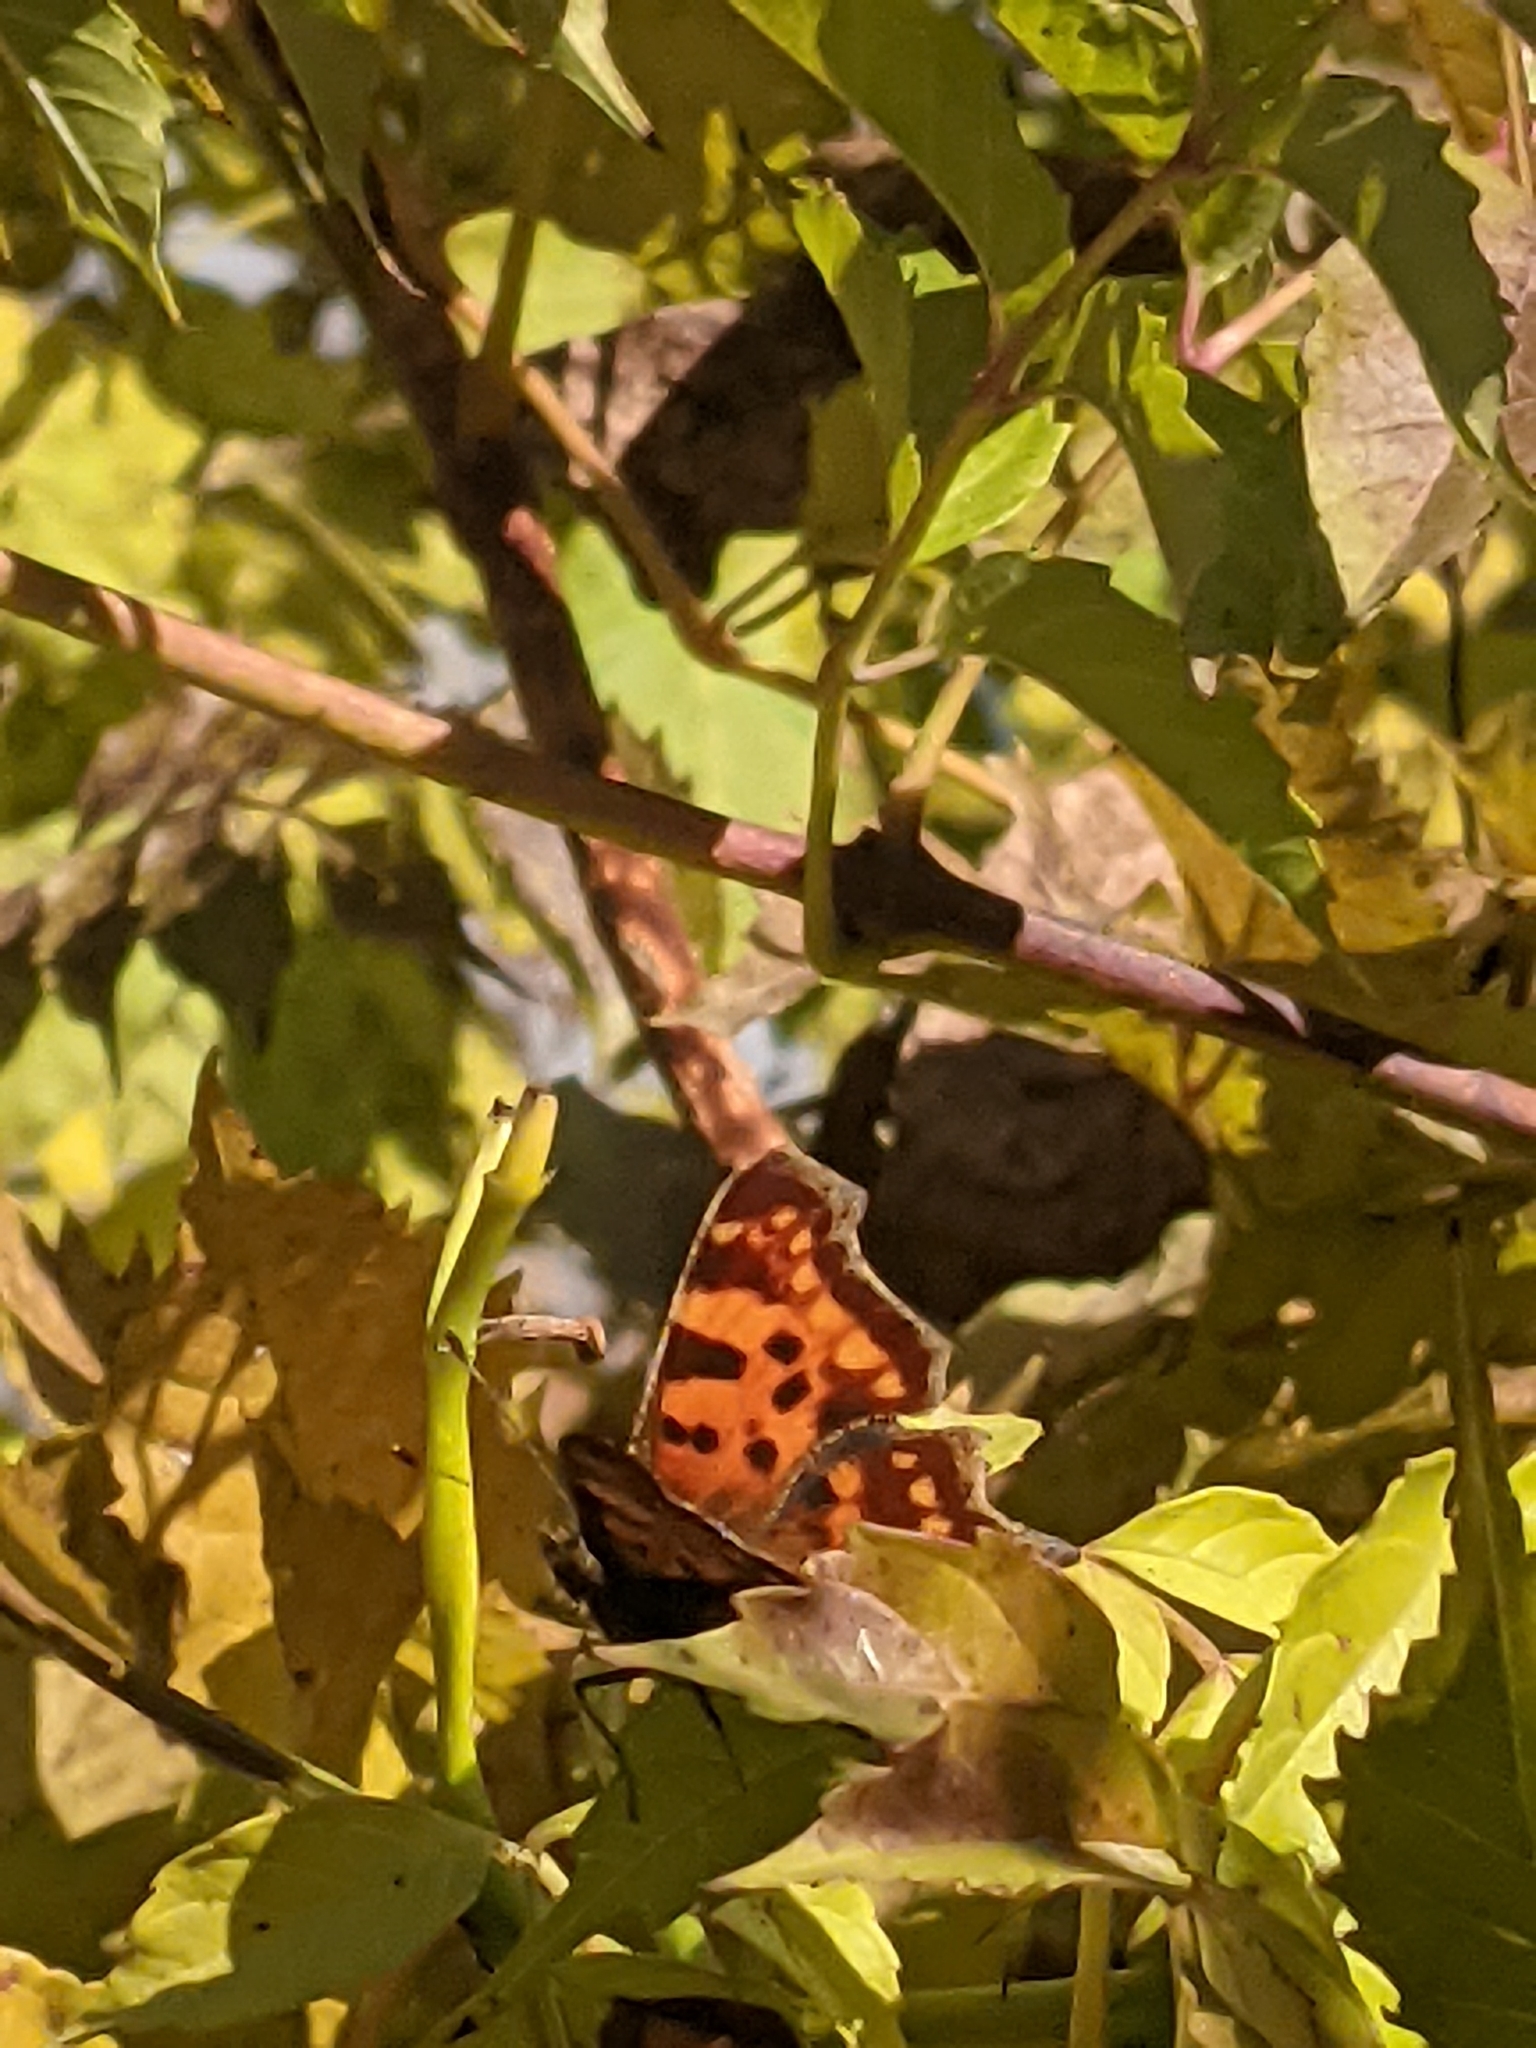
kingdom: Animalia
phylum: Arthropoda
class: Insecta
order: Lepidoptera
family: Nymphalidae
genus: Polygonia
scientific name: Polygonia c-album
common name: Comma
